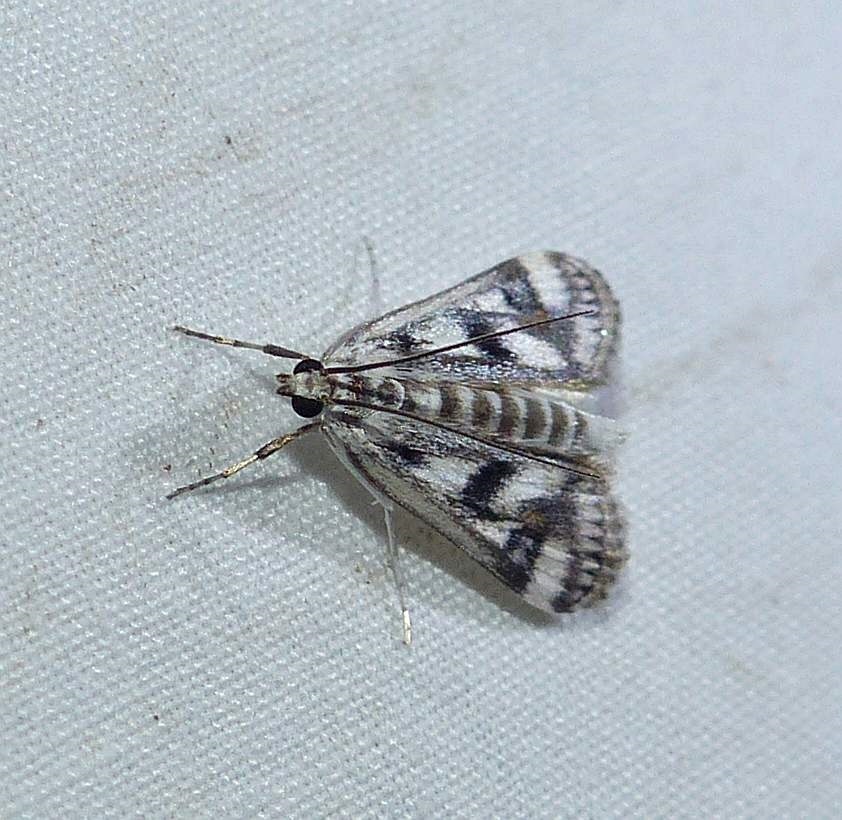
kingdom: Animalia
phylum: Arthropoda
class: Insecta
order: Lepidoptera
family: Crambidae
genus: Parapoynx
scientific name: Parapoynx maculalis
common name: Polymorphic pondweed moth
